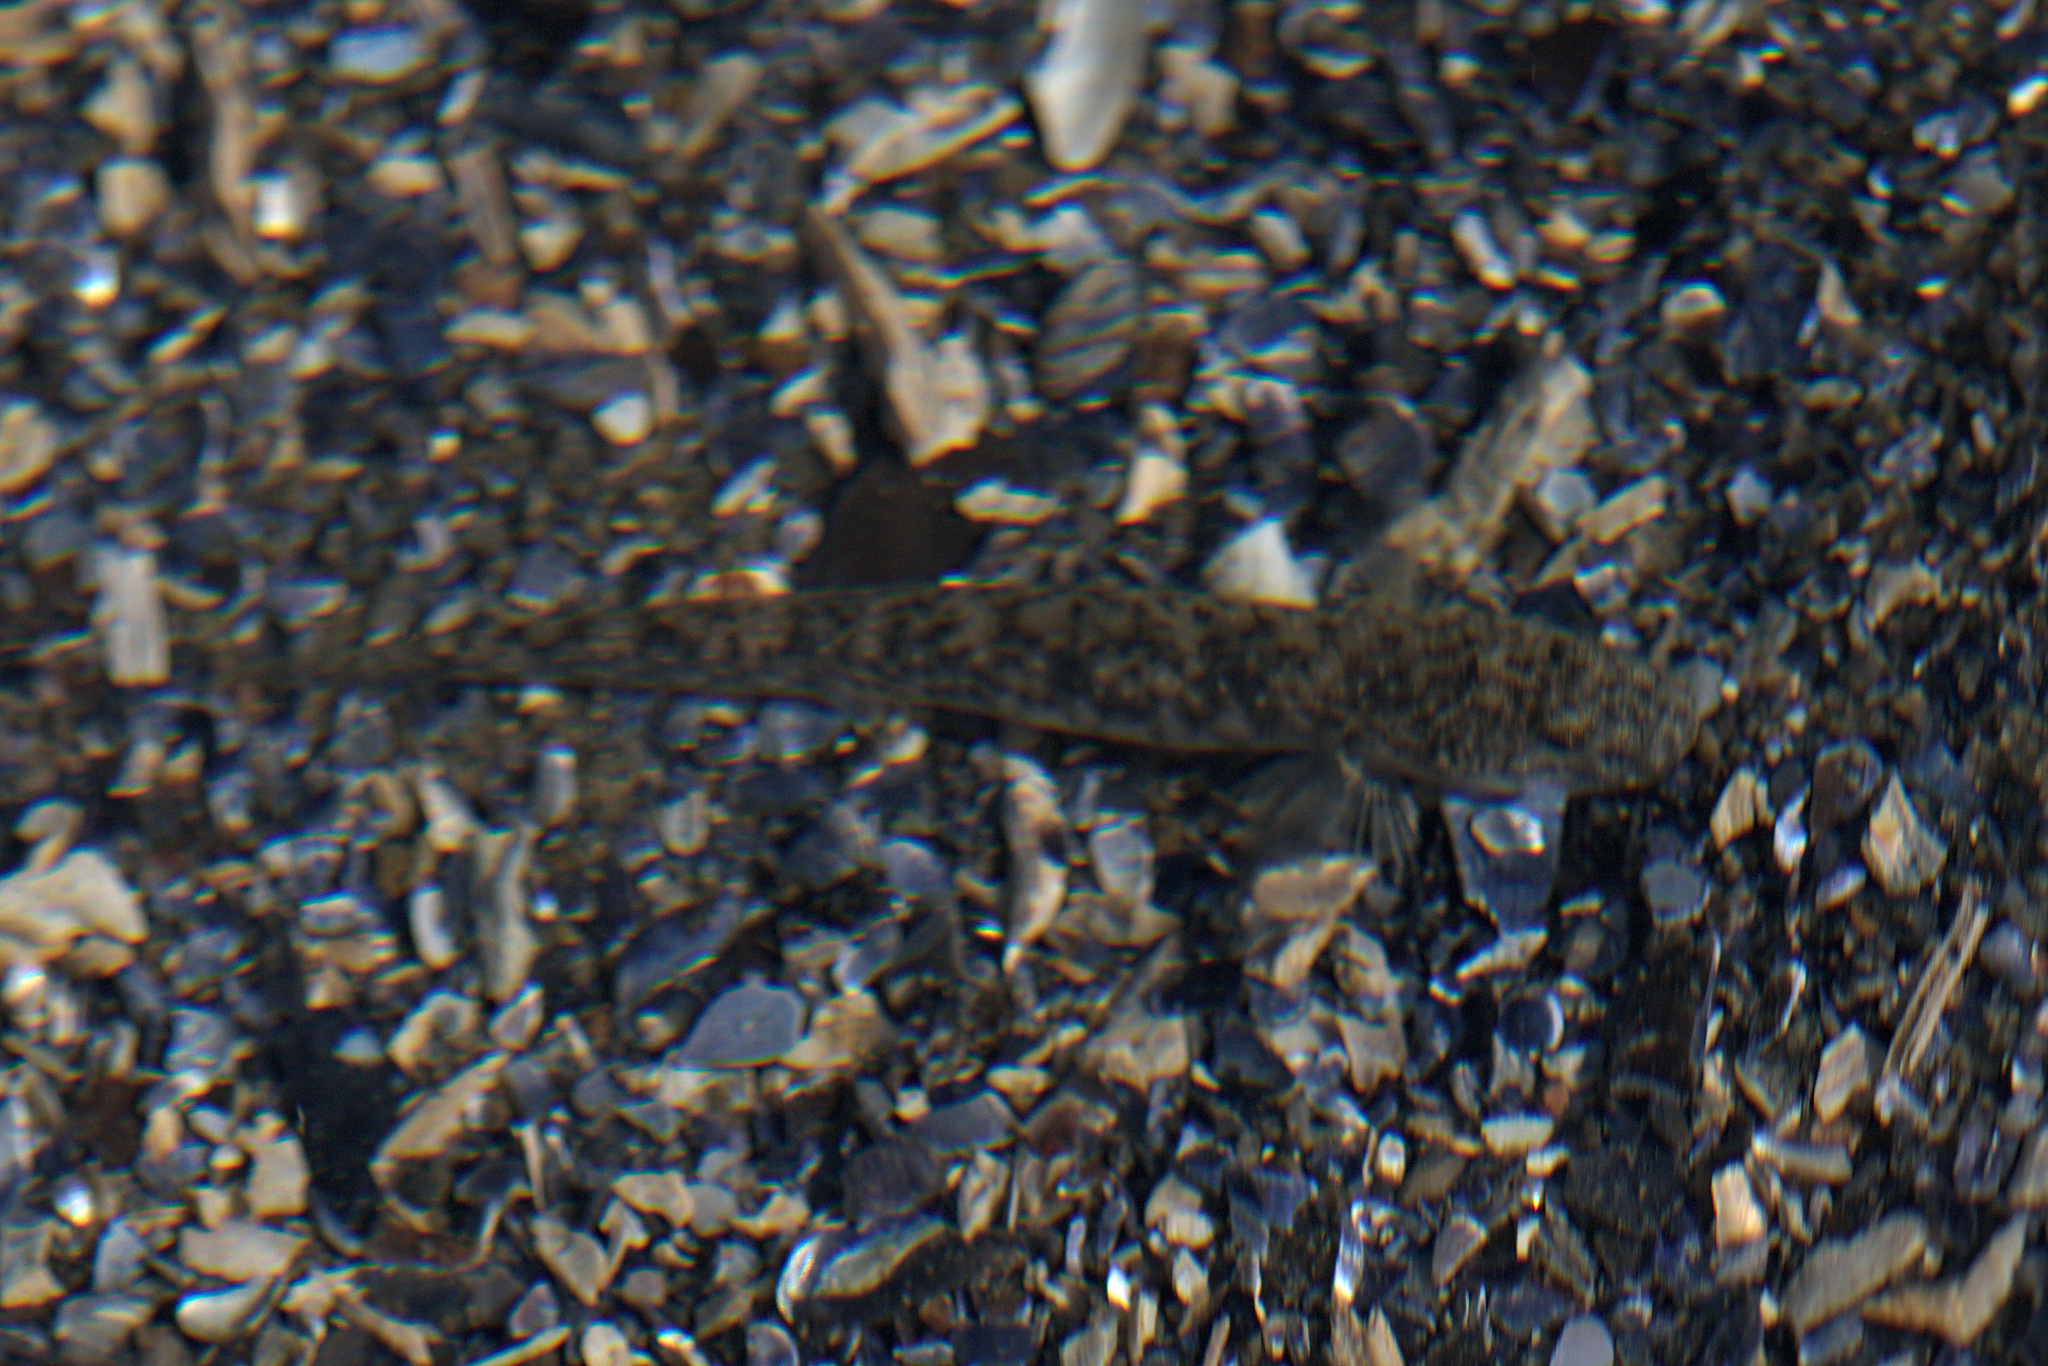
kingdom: Animalia
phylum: Chordata
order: Perciformes
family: Gobiidae
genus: Clevelandia
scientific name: Clevelandia ios
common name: Arrow goby
